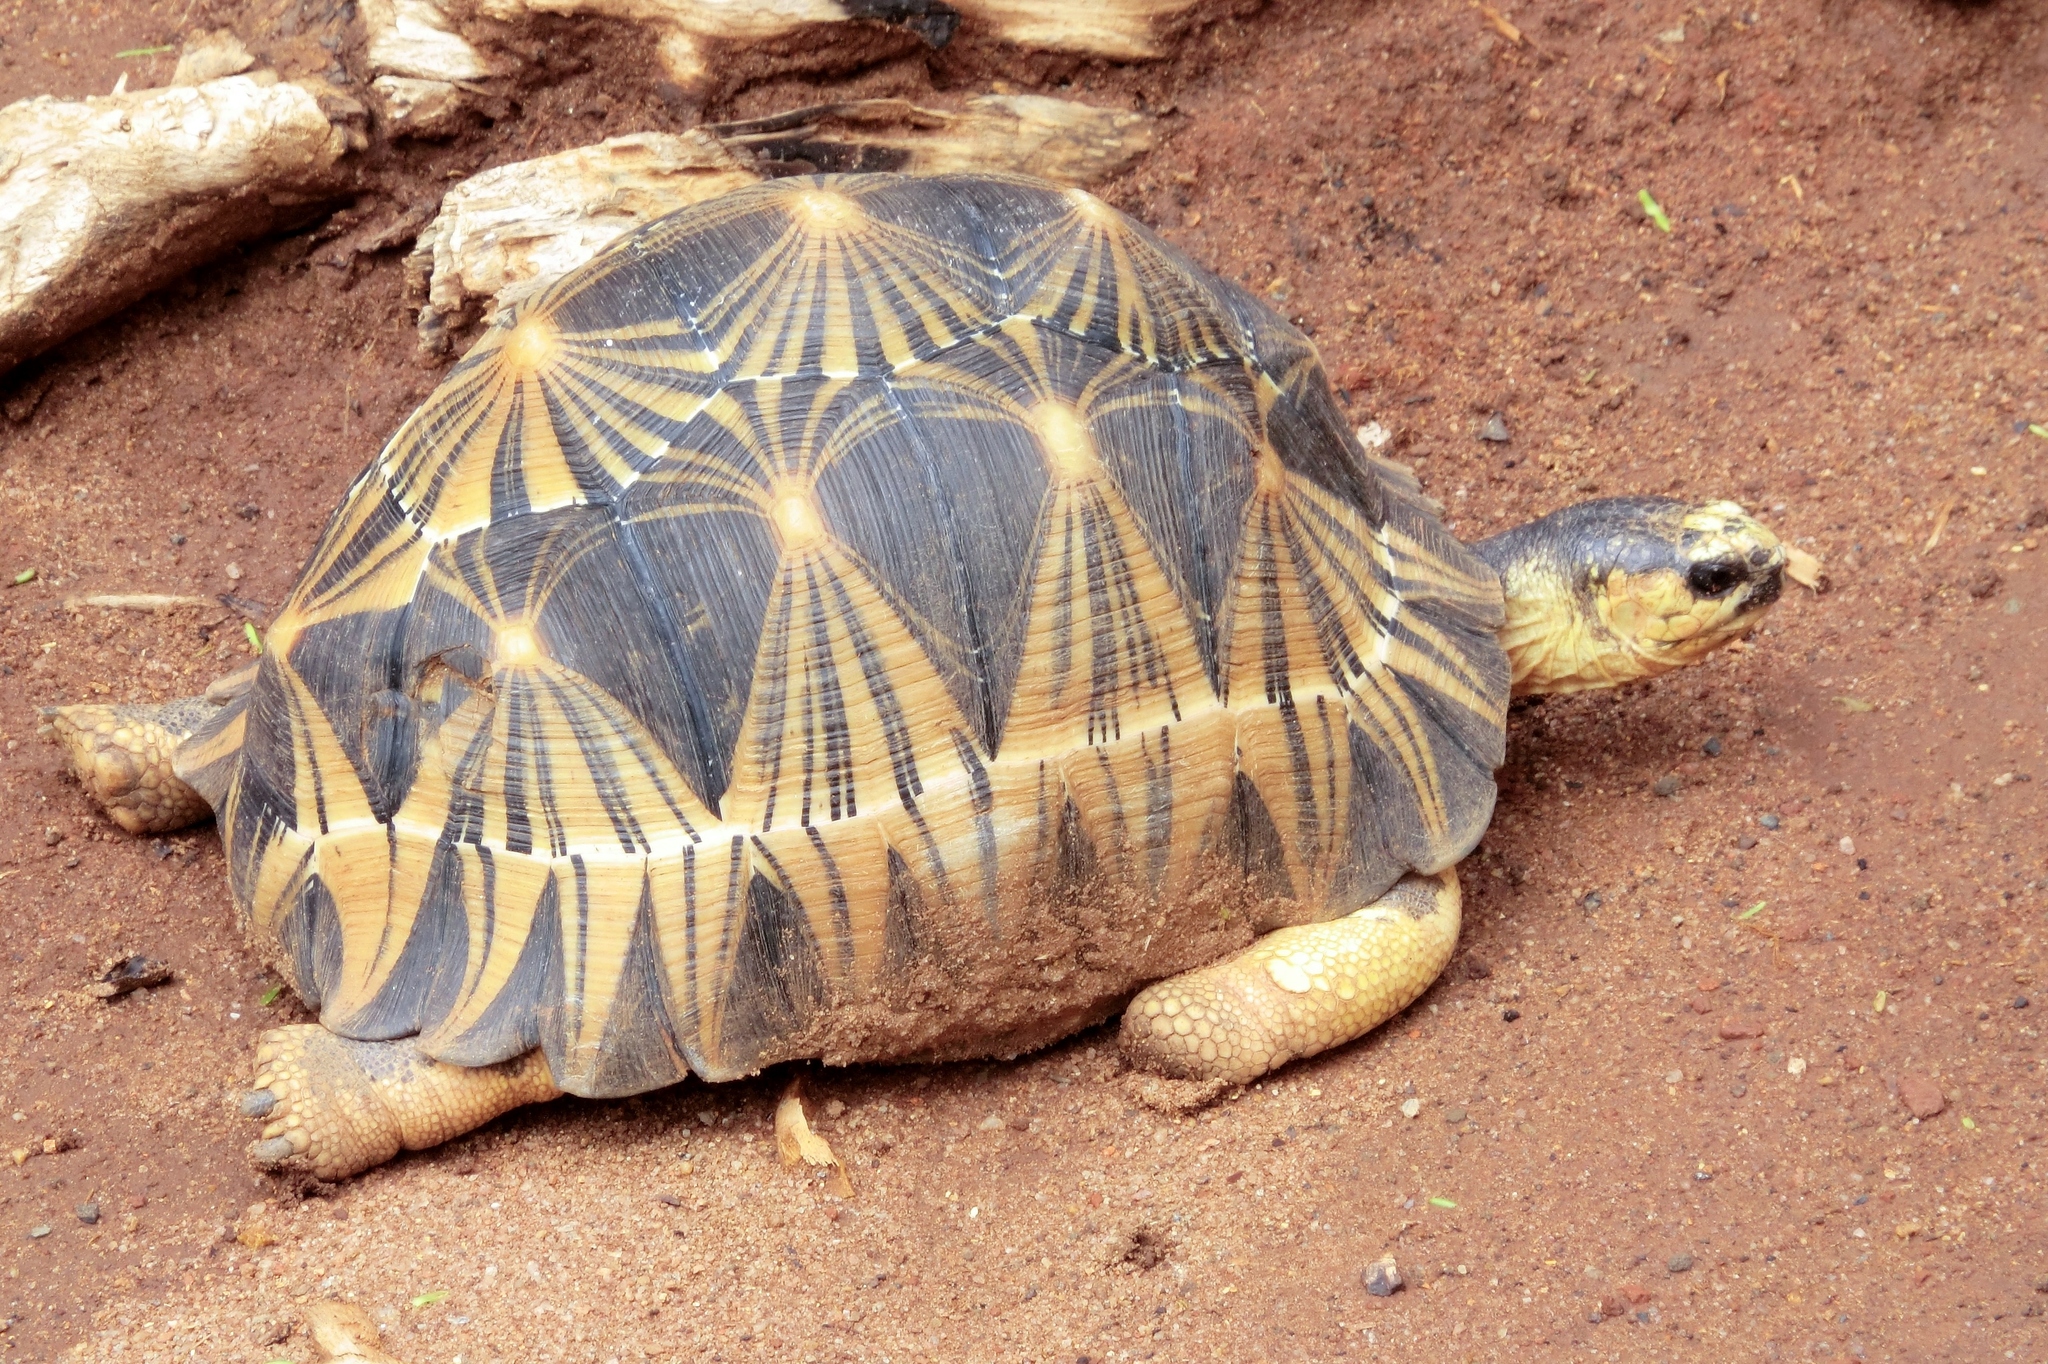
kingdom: Animalia
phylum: Chordata
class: Testudines
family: Testudinidae
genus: Astrochelys
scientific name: Astrochelys radiata
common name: Radiated tortoise
